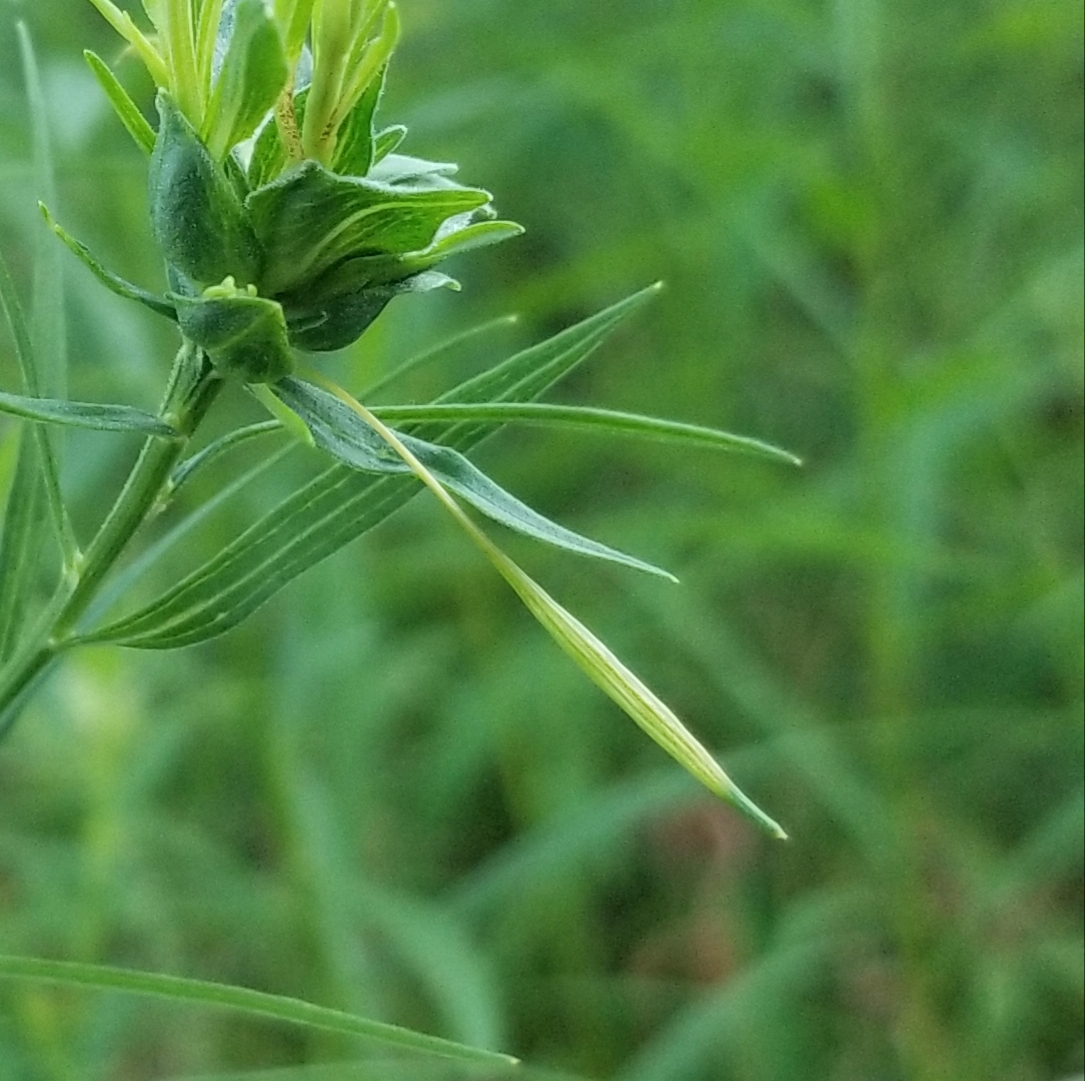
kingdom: Animalia
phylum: Arthropoda
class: Insecta
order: Diptera
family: Cecidomyiidae
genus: Rhopalomyia
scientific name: Rhopalomyia pedicellata
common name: Goldentop pedicellate gall midge
